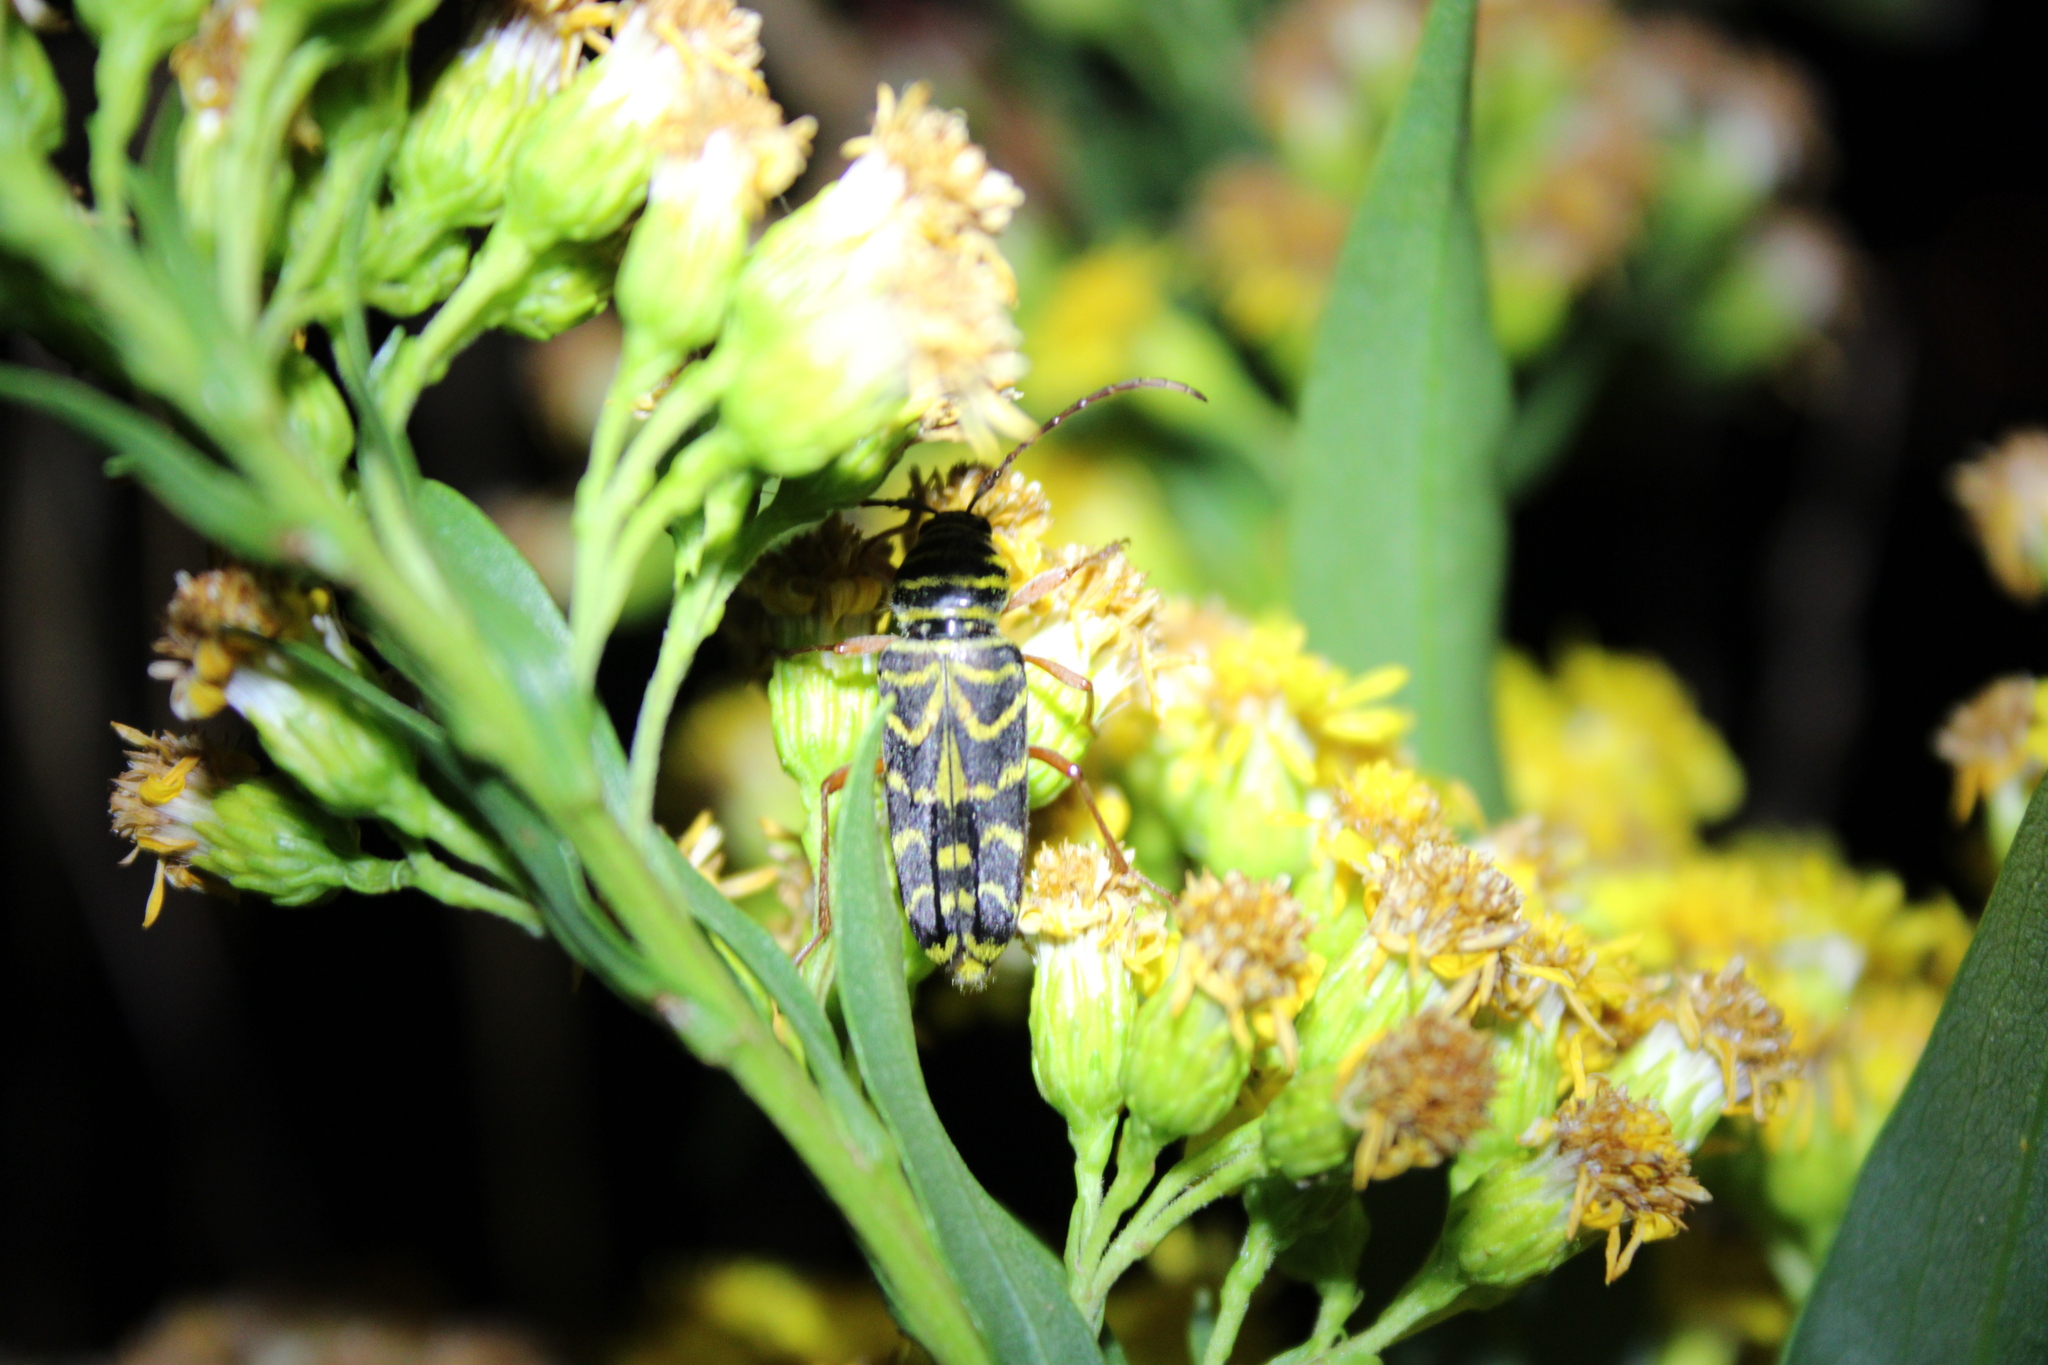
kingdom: Animalia
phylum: Arthropoda
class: Insecta
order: Coleoptera
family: Cerambycidae
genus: Megacyllene
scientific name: Megacyllene robiniae
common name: Locust borer
